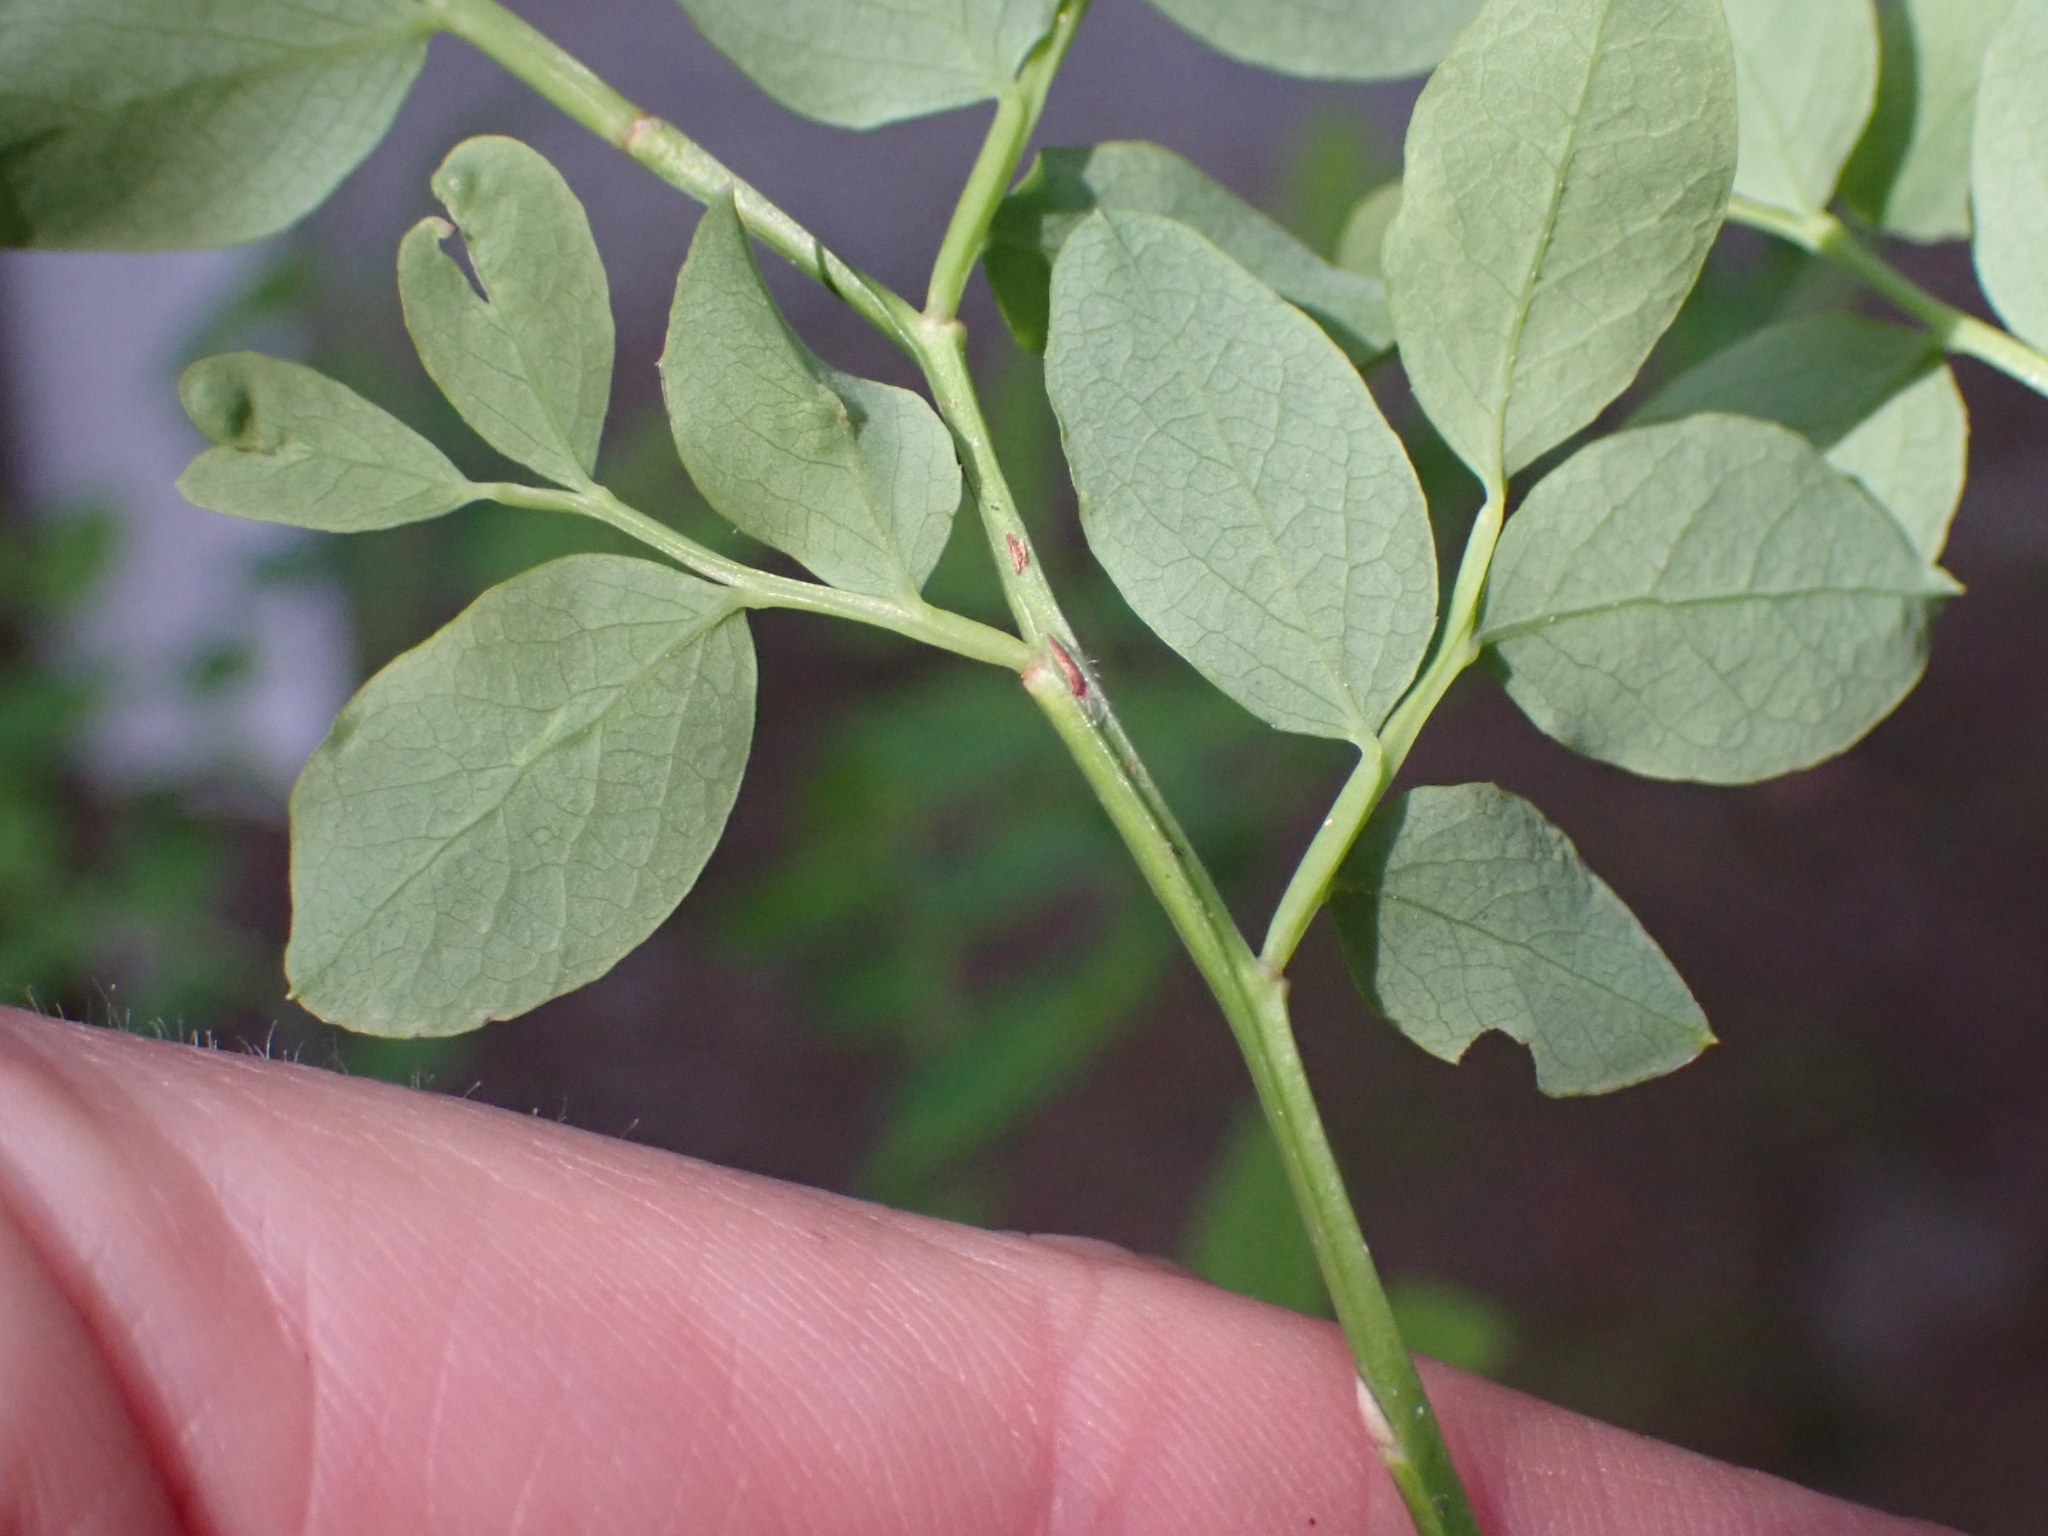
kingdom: Plantae
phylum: Tracheophyta
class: Magnoliopsida
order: Ericales
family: Ericaceae
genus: Vaccinium
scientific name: Vaccinium parvifolium
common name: Red-huckleberry
